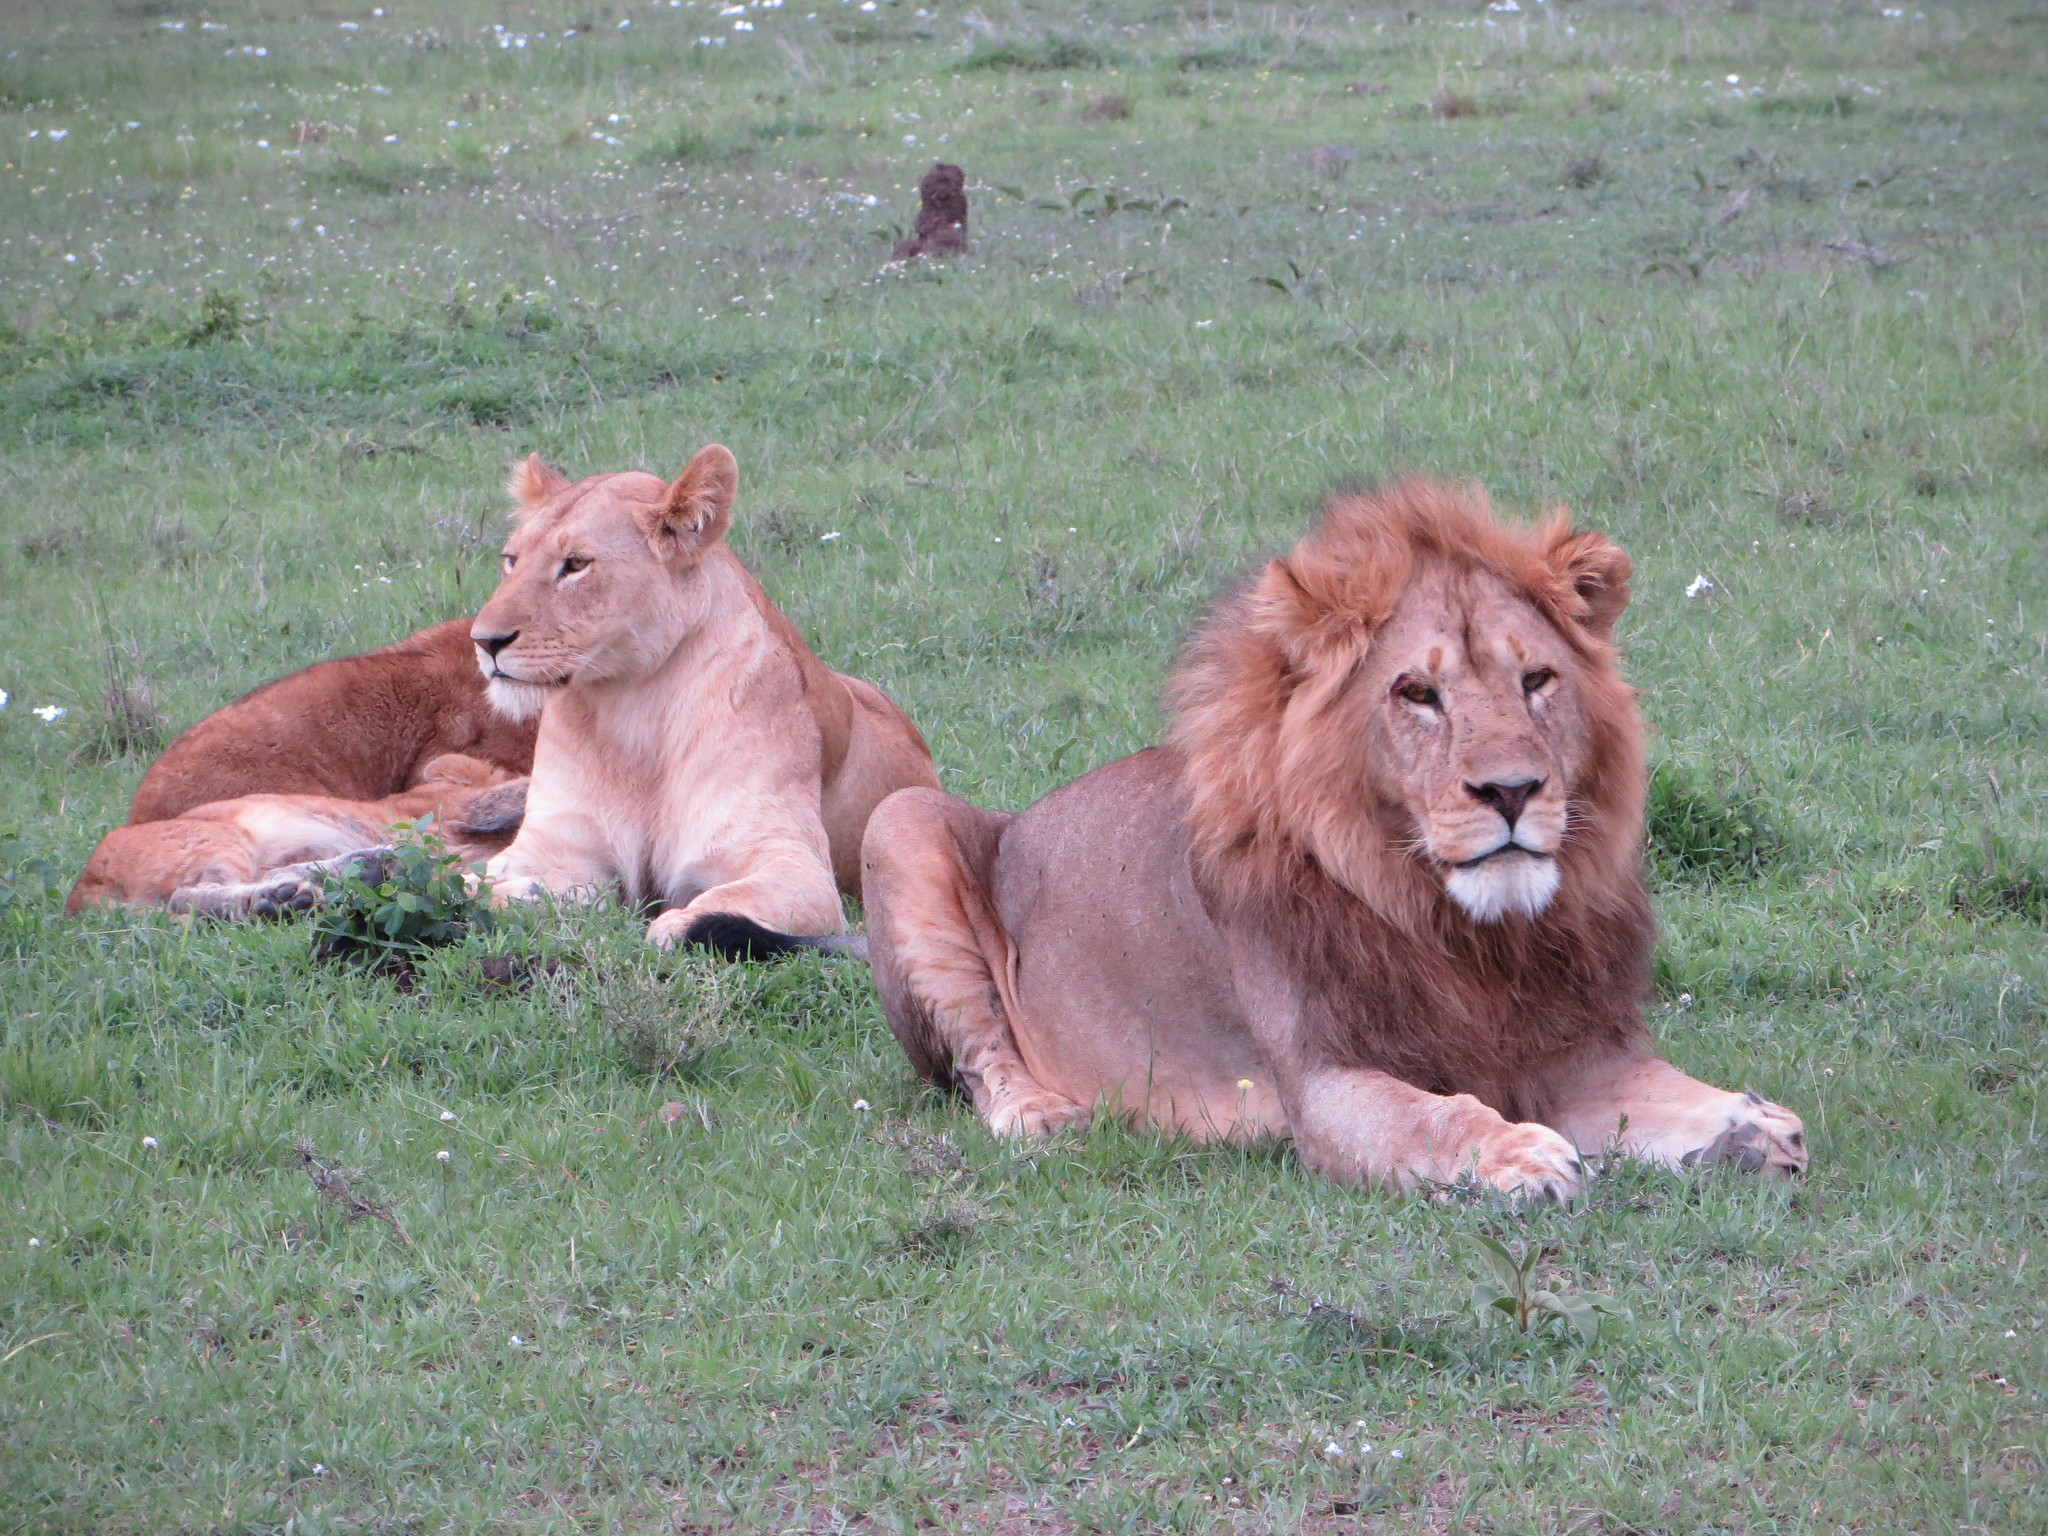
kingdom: Animalia
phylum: Chordata
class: Mammalia
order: Carnivora
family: Felidae
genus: Panthera
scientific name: Panthera leo
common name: Lion
